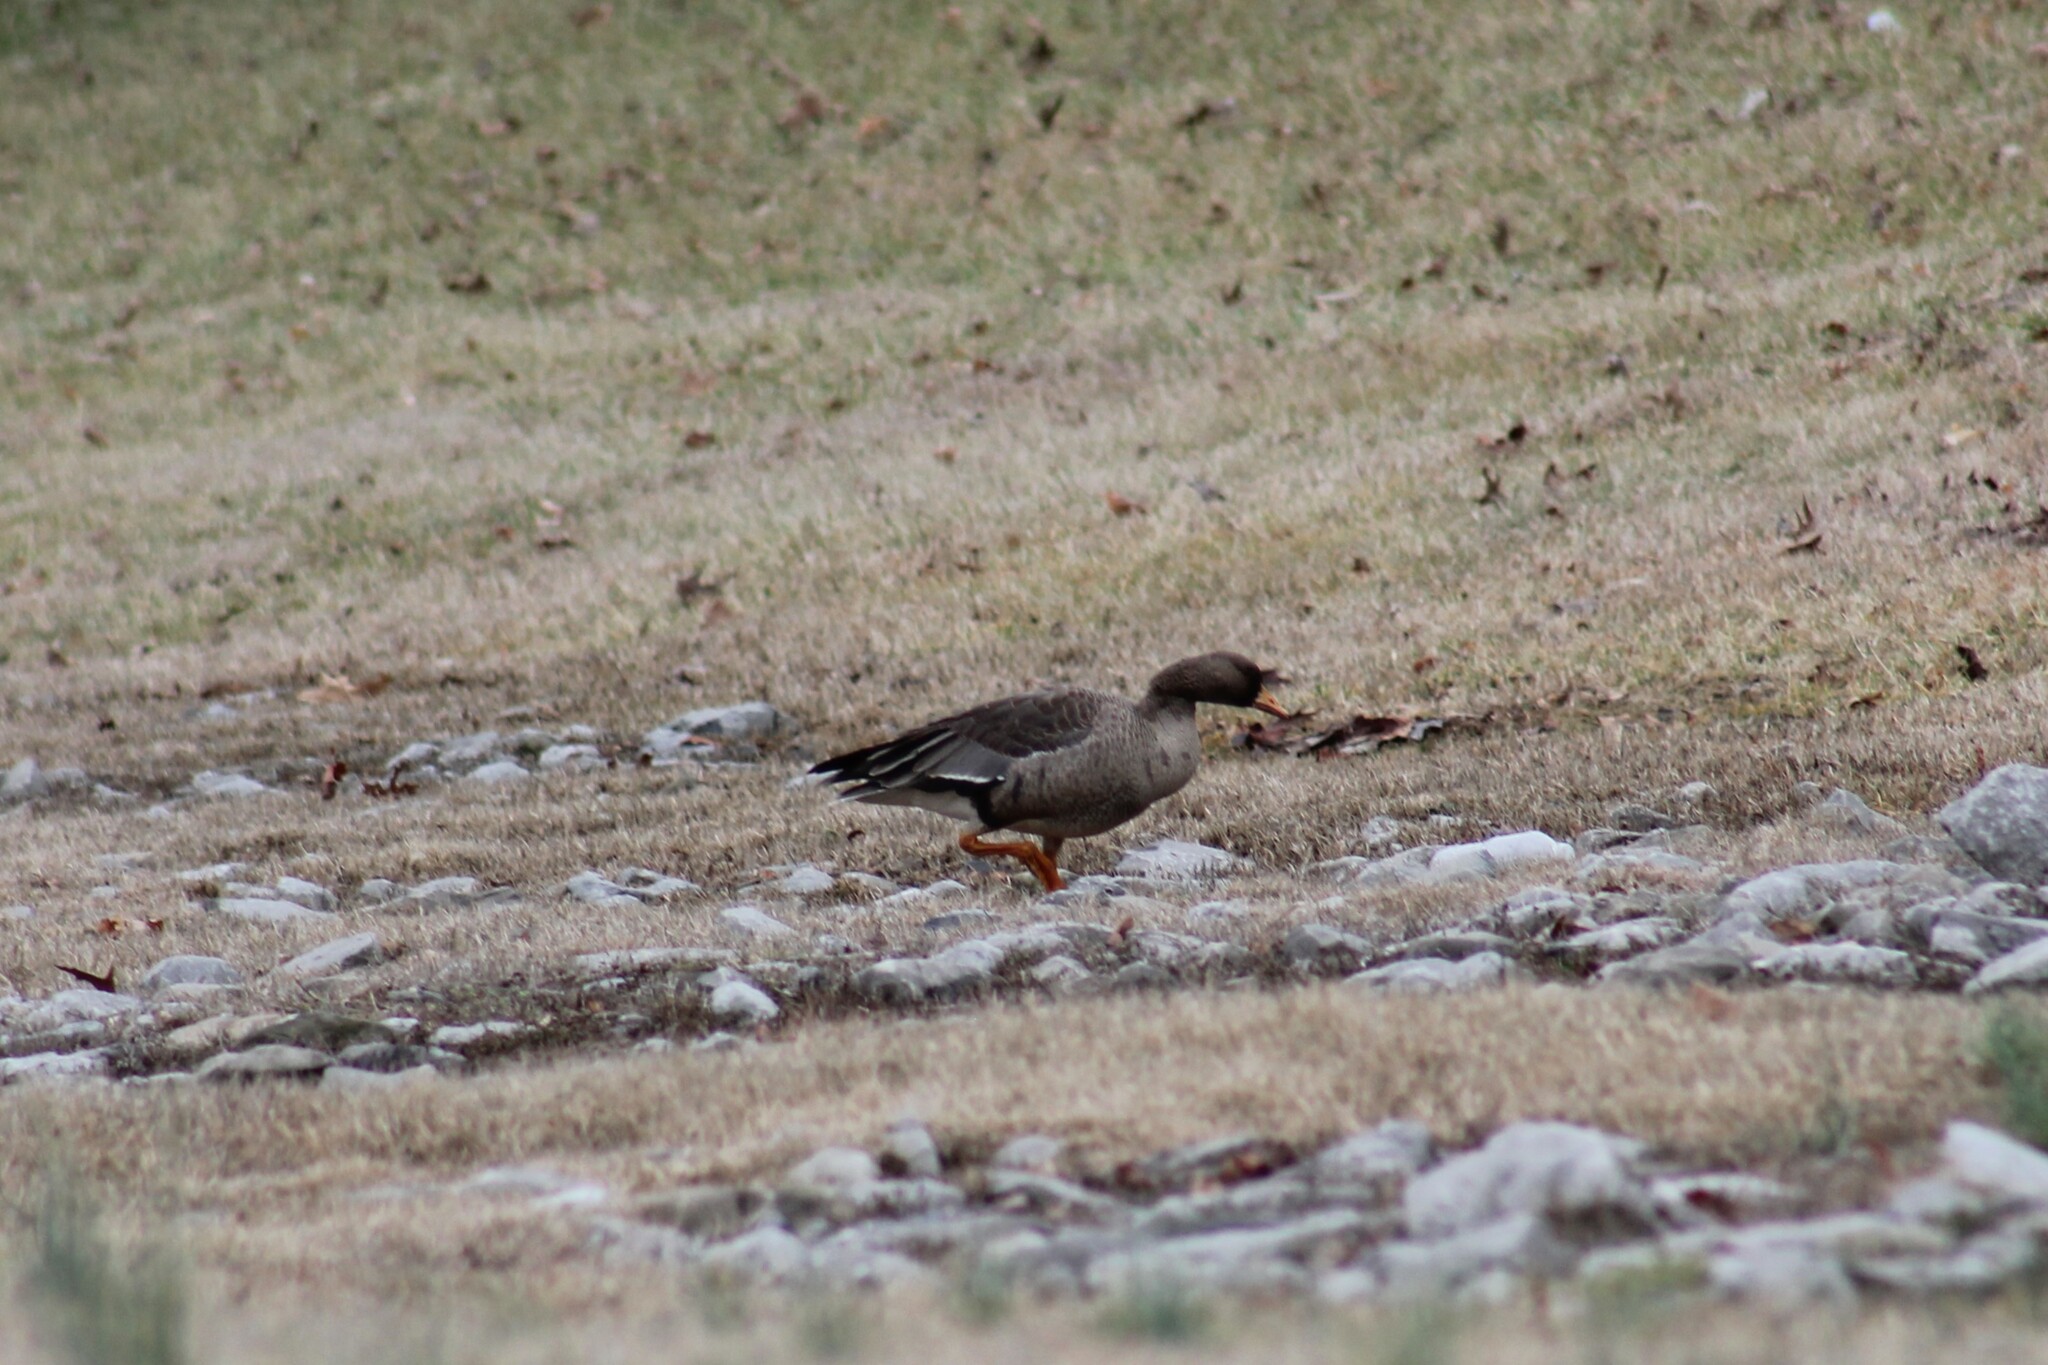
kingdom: Animalia
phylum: Chordata
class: Aves
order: Anseriformes
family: Anatidae
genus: Anser
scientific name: Anser albifrons
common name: Greater white-fronted goose
